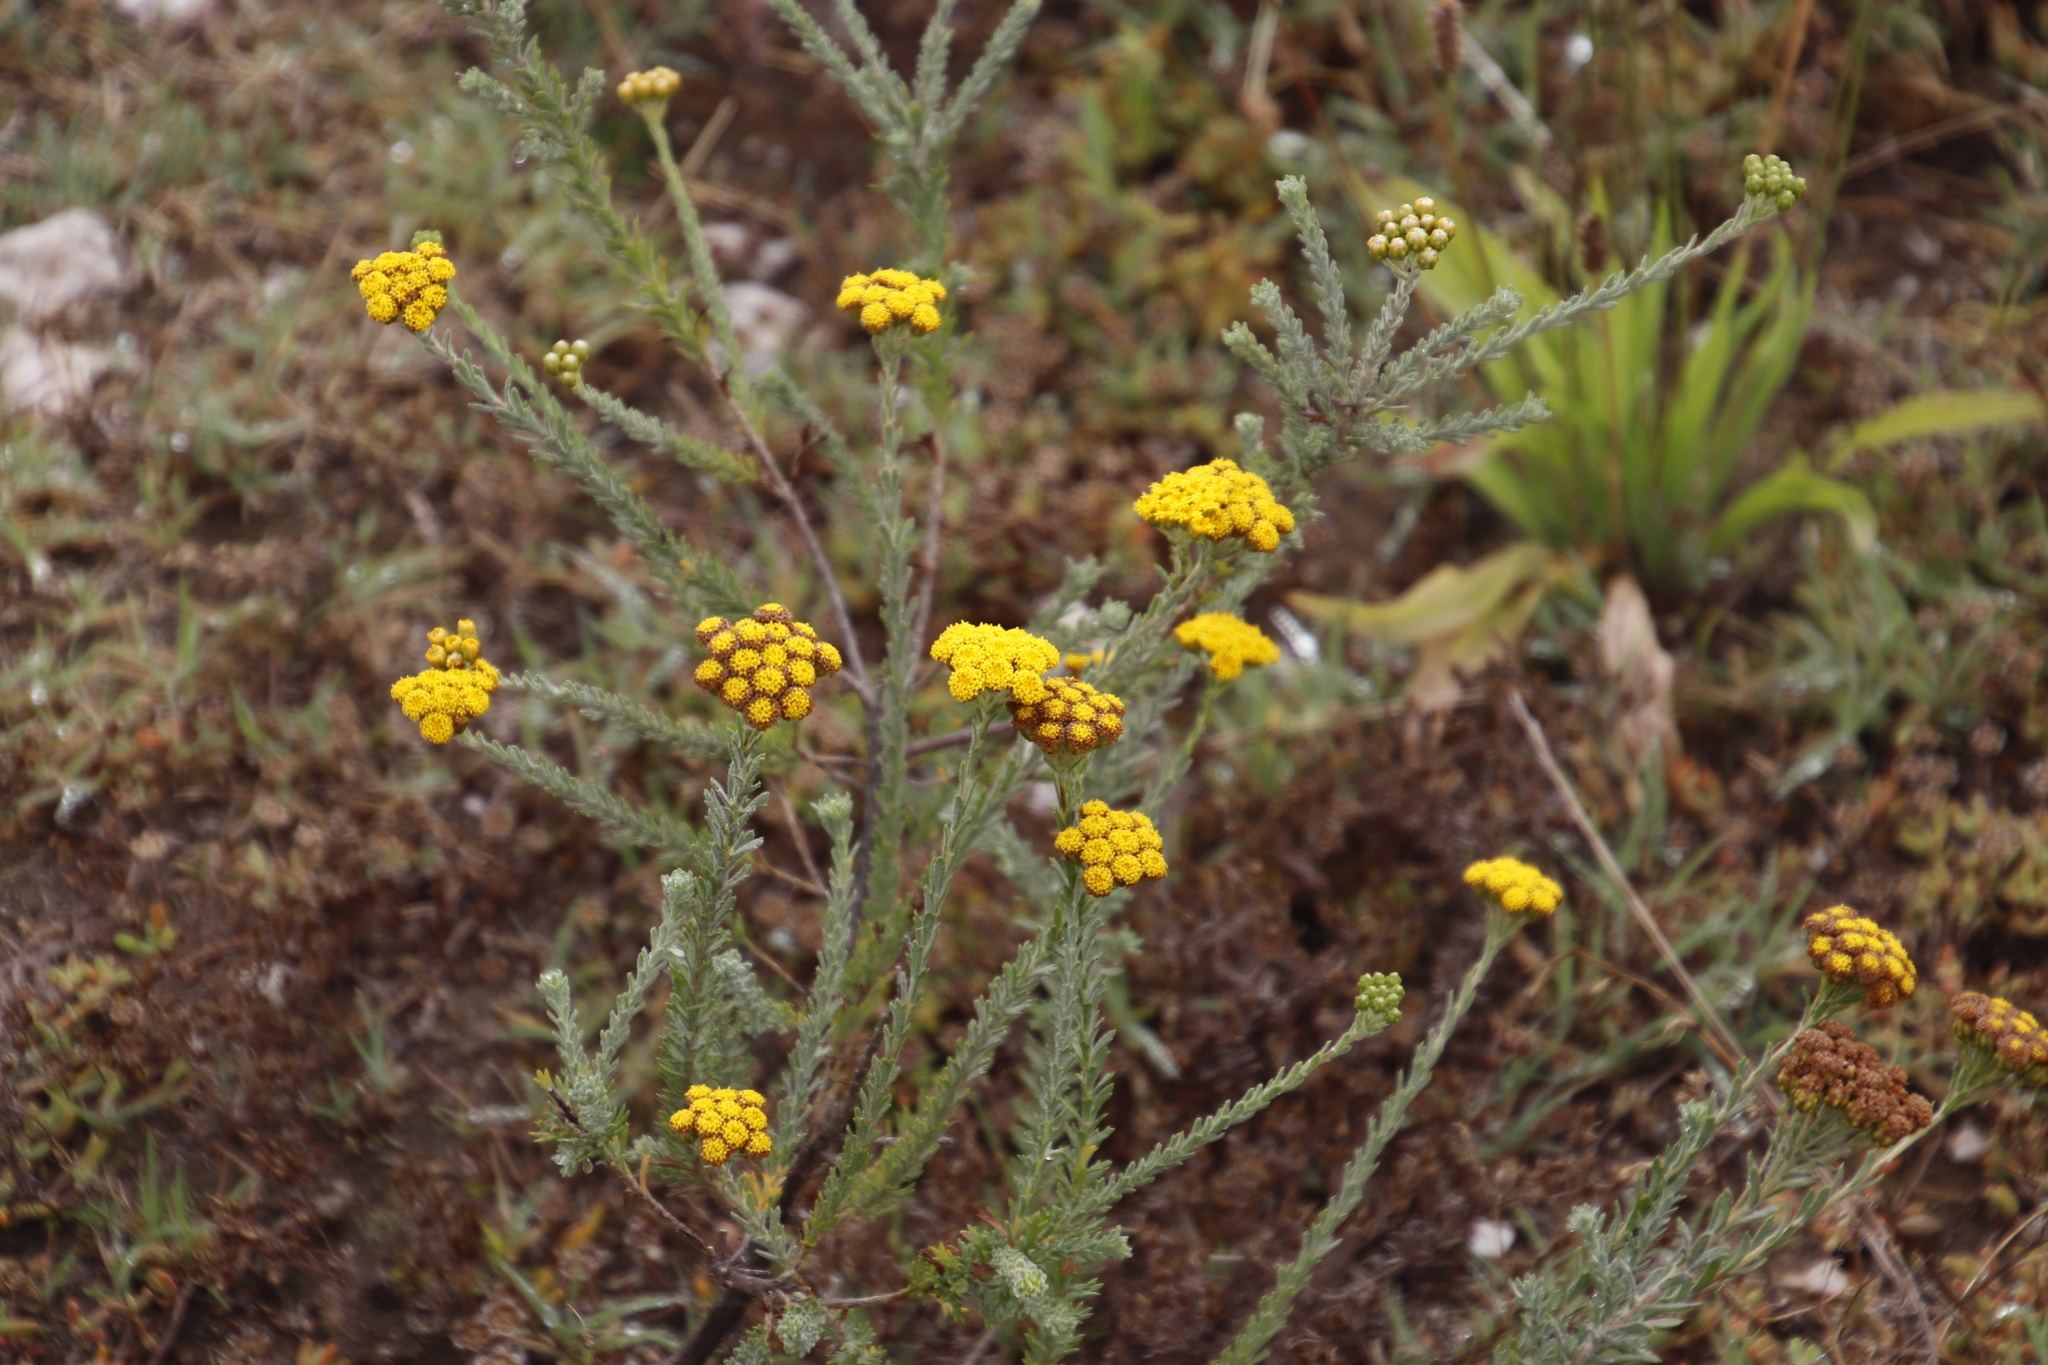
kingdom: Plantae
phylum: Tracheophyta
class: Magnoliopsida
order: Asterales
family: Asteraceae
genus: Athanasia
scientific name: Athanasia trifurcata
